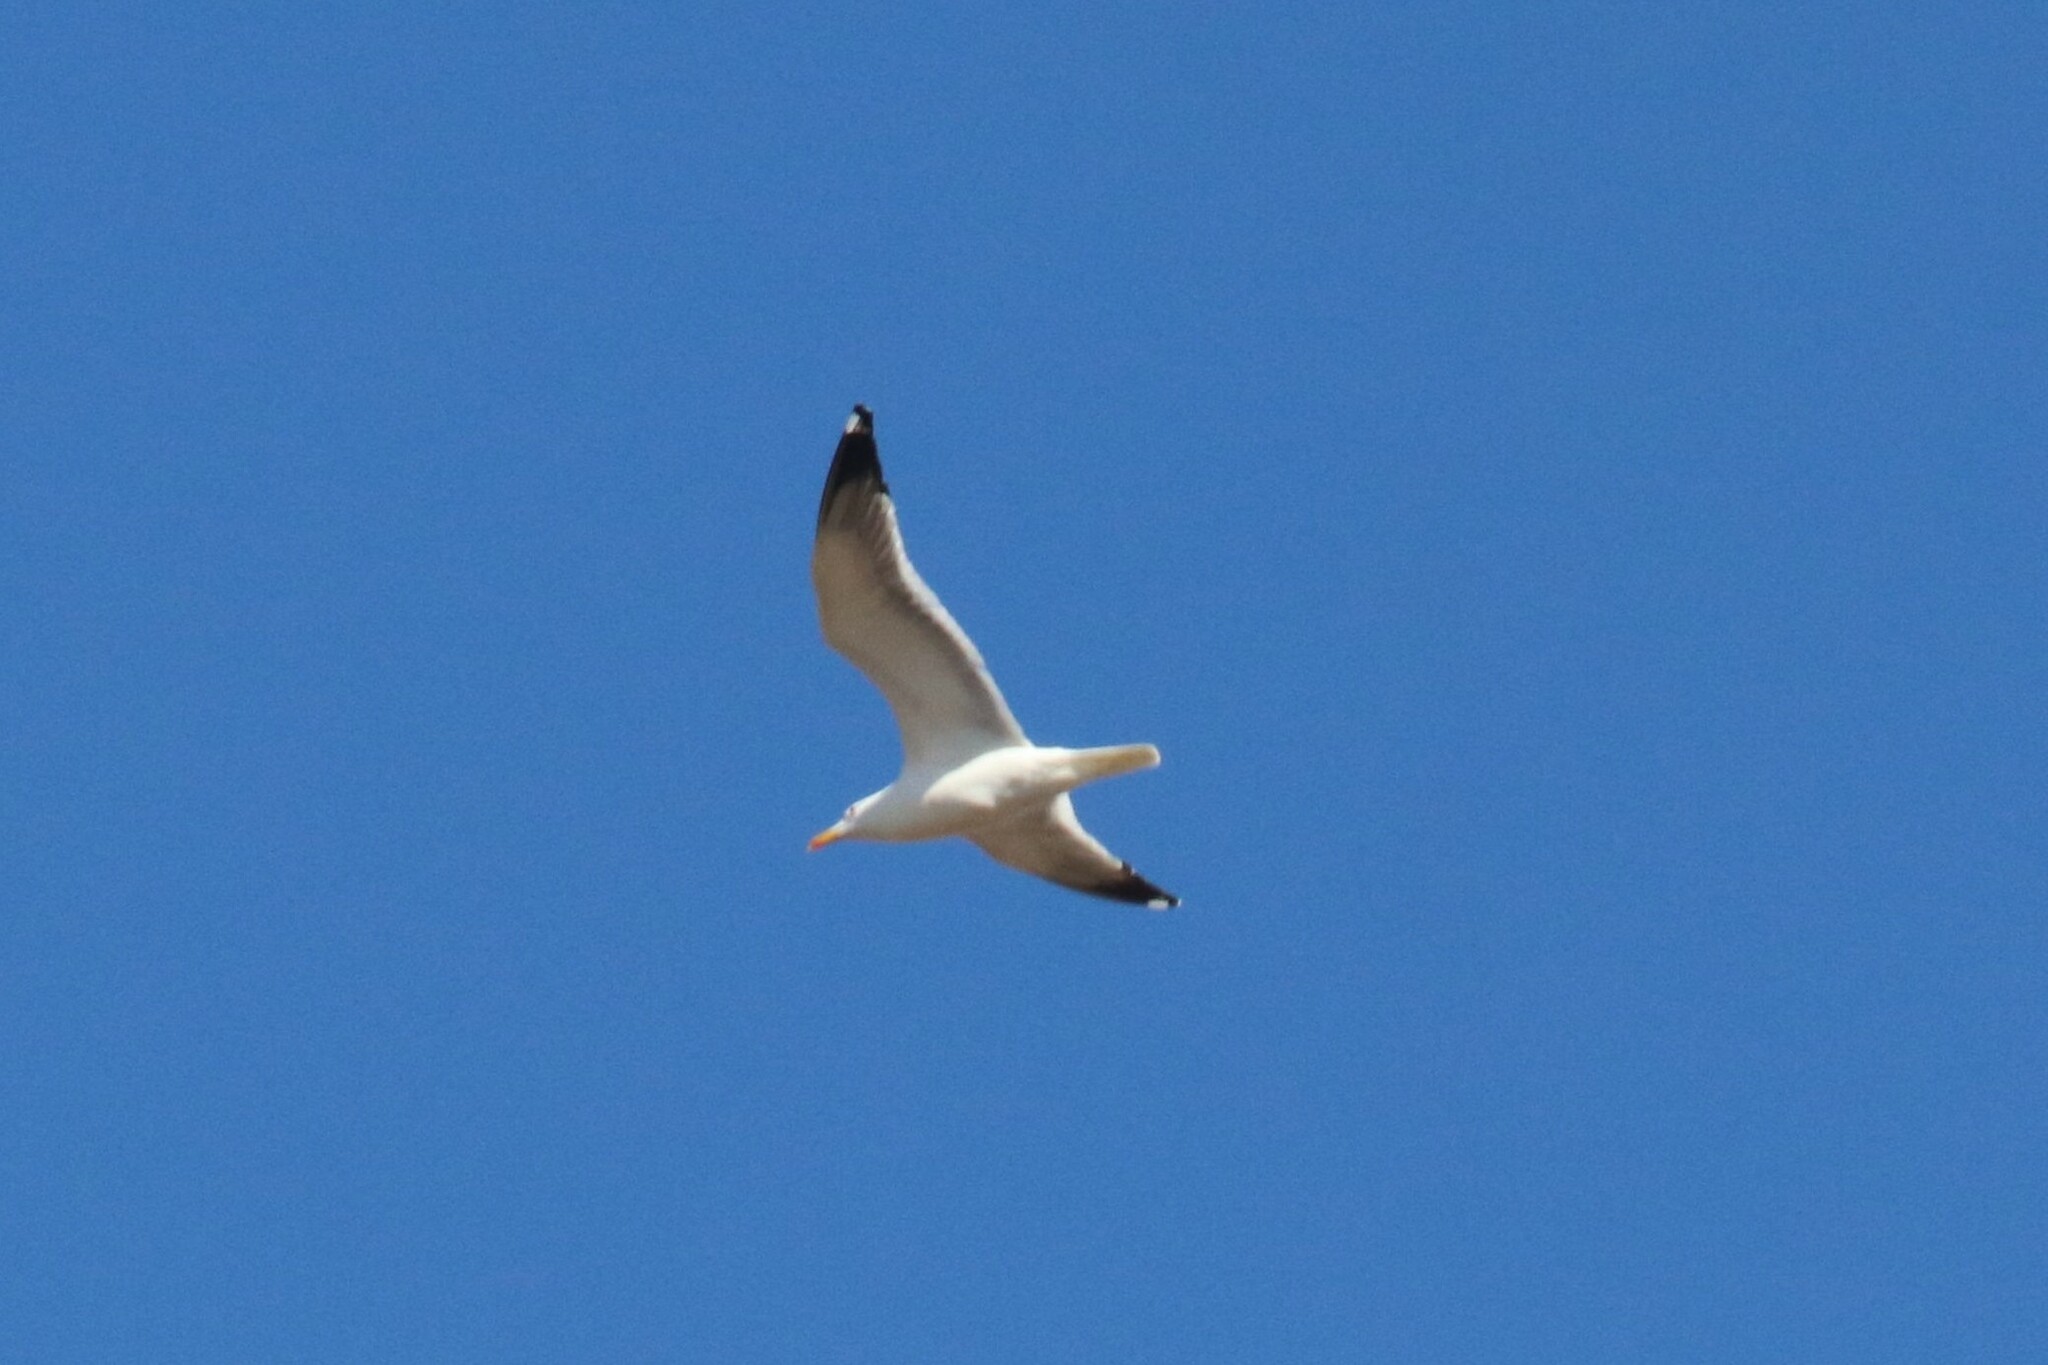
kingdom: Animalia
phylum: Chordata
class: Aves
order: Charadriiformes
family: Laridae
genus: Larus
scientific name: Larus fuscus
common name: Lesser black-backed gull
